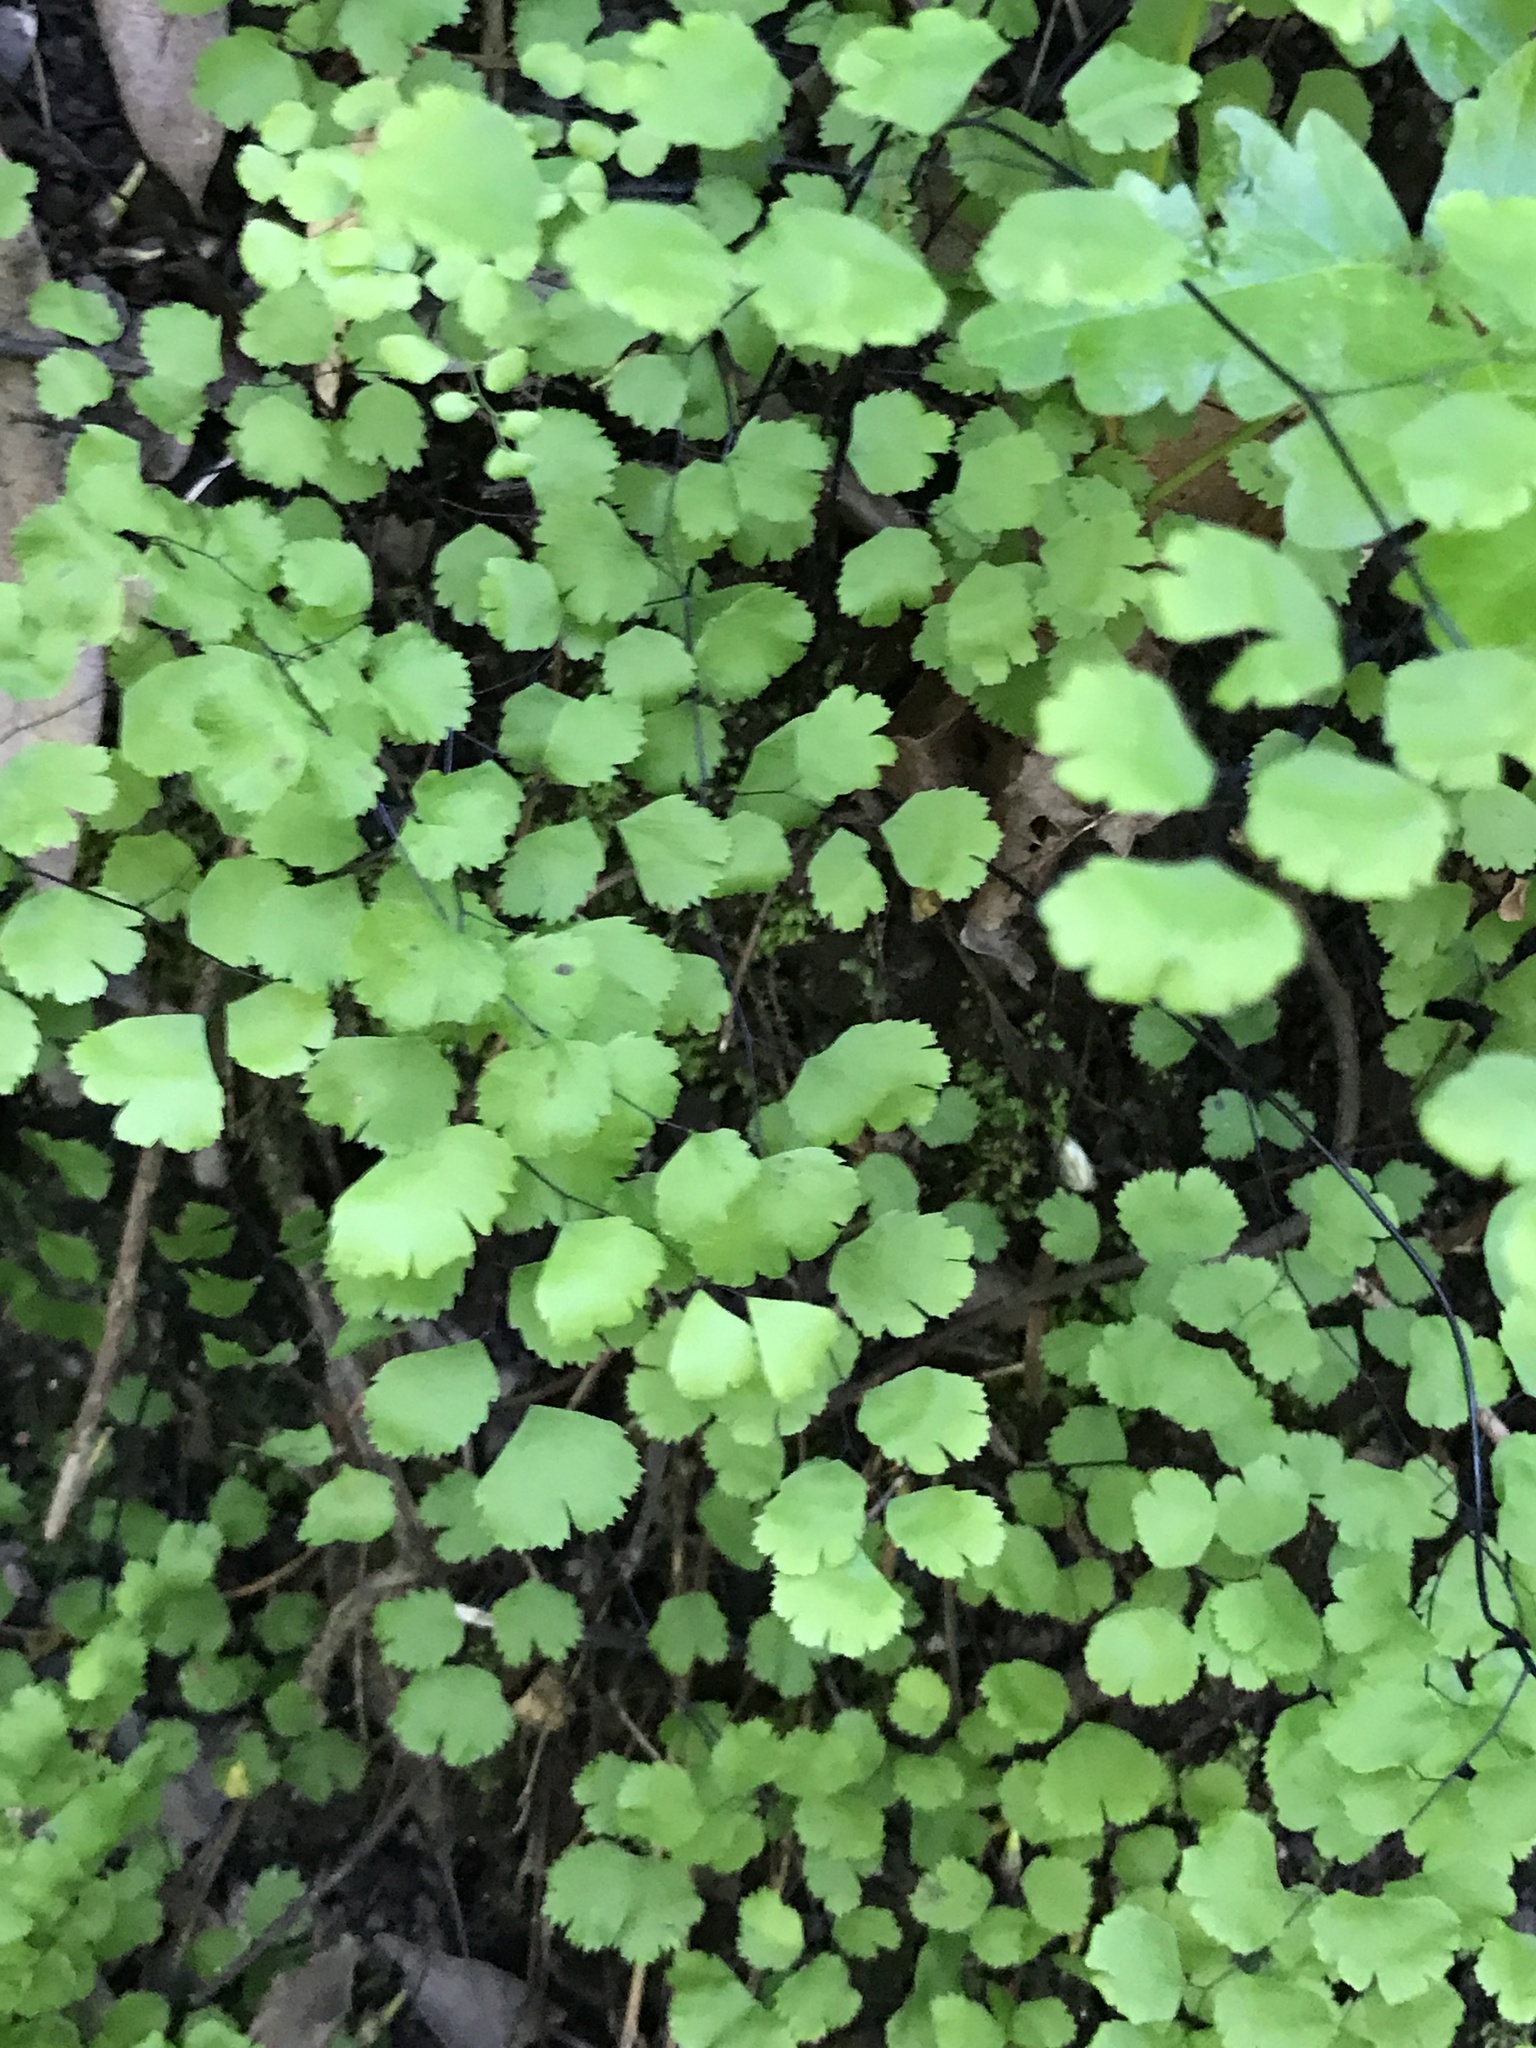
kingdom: Plantae
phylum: Tracheophyta
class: Polypodiopsida
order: Polypodiales
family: Pteridaceae
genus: Adiantum
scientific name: Adiantum jordanii
